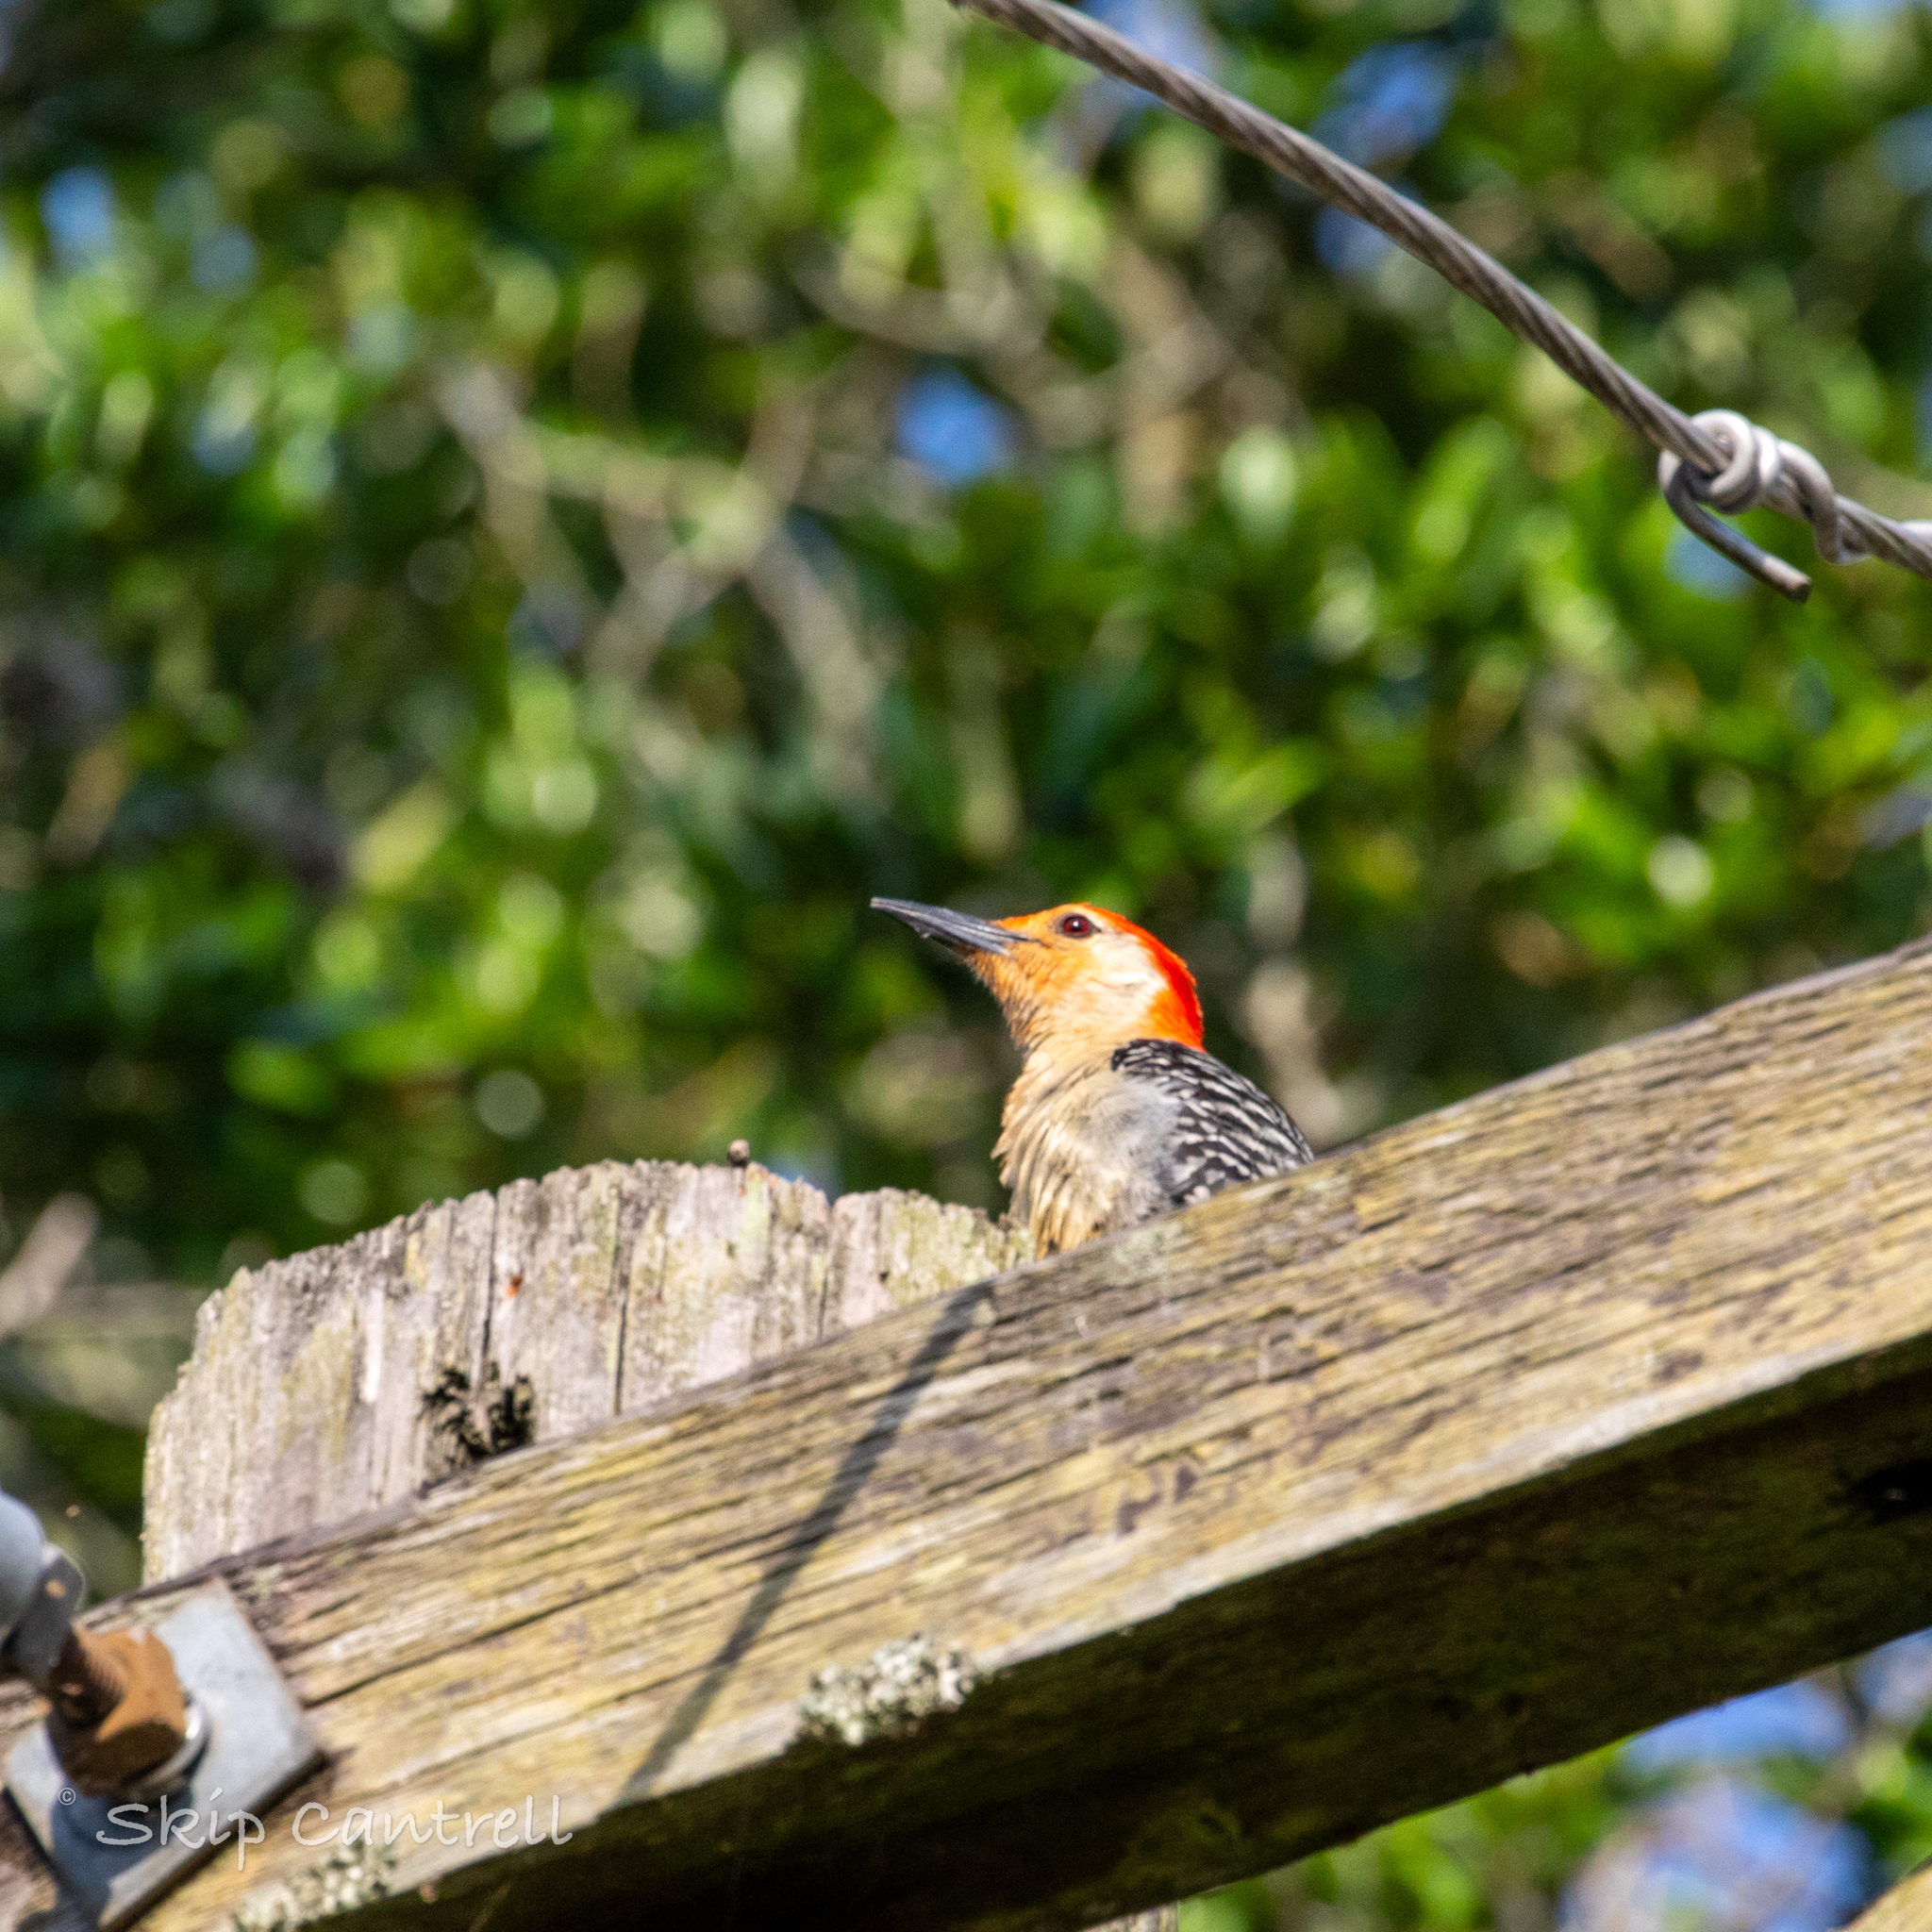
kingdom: Animalia
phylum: Chordata
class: Aves
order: Piciformes
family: Picidae
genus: Melanerpes
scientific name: Melanerpes carolinus
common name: Red-bellied woodpecker
